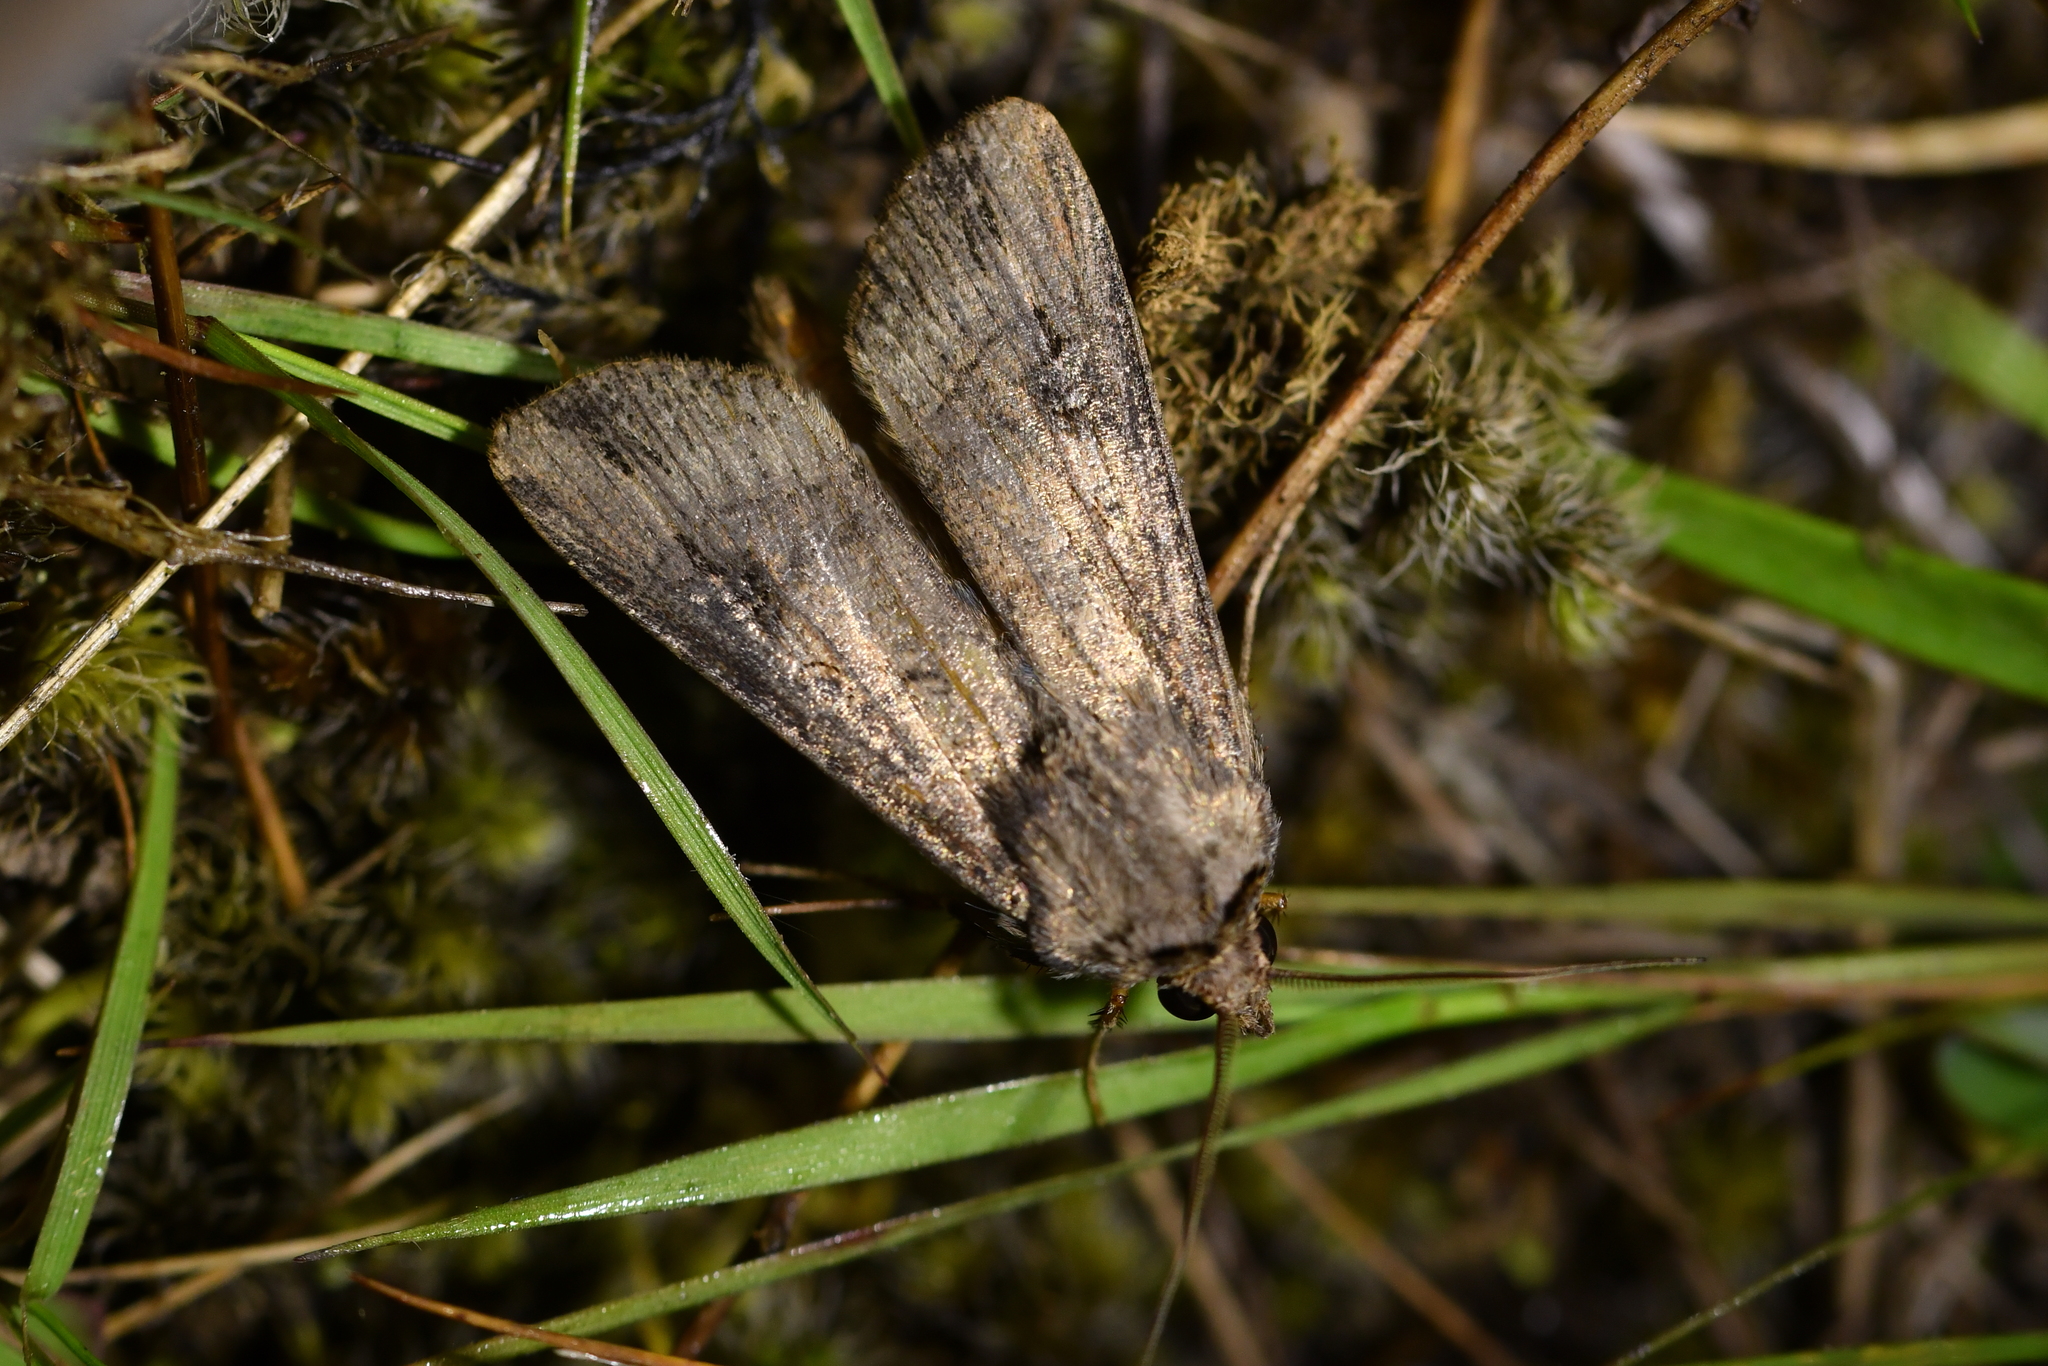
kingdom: Animalia
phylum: Arthropoda
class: Insecta
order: Lepidoptera
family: Noctuidae
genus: Agrotis
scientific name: Agrotis ipsilon
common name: Dark sword-grass
